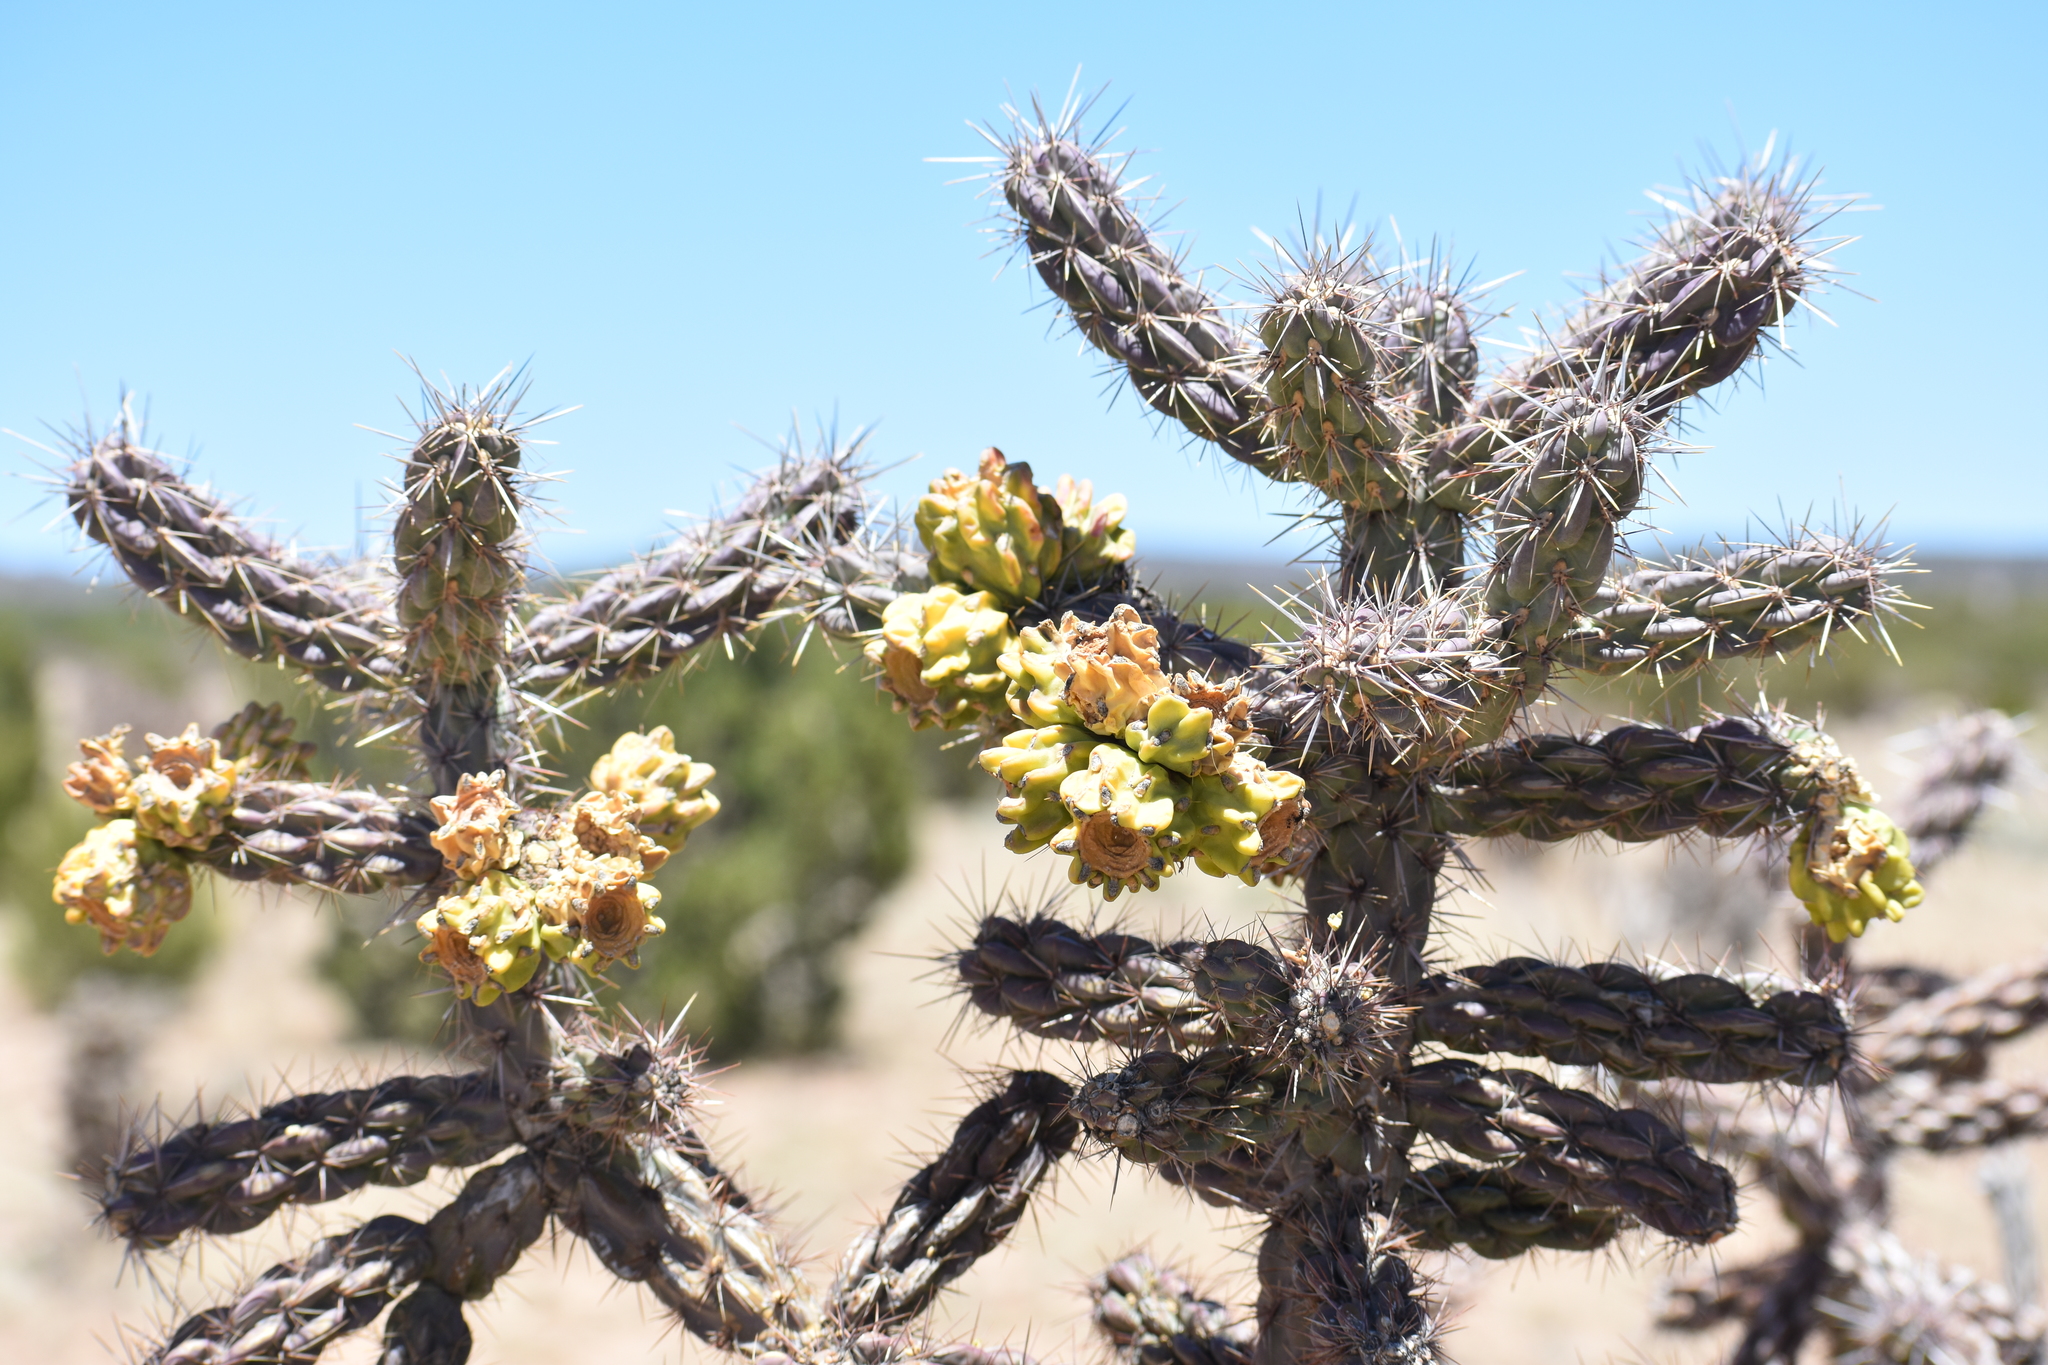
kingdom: Plantae
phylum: Tracheophyta
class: Magnoliopsida
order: Caryophyllales
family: Cactaceae
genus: Cylindropuntia
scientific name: Cylindropuntia imbricata
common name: Candelabrum cactus
